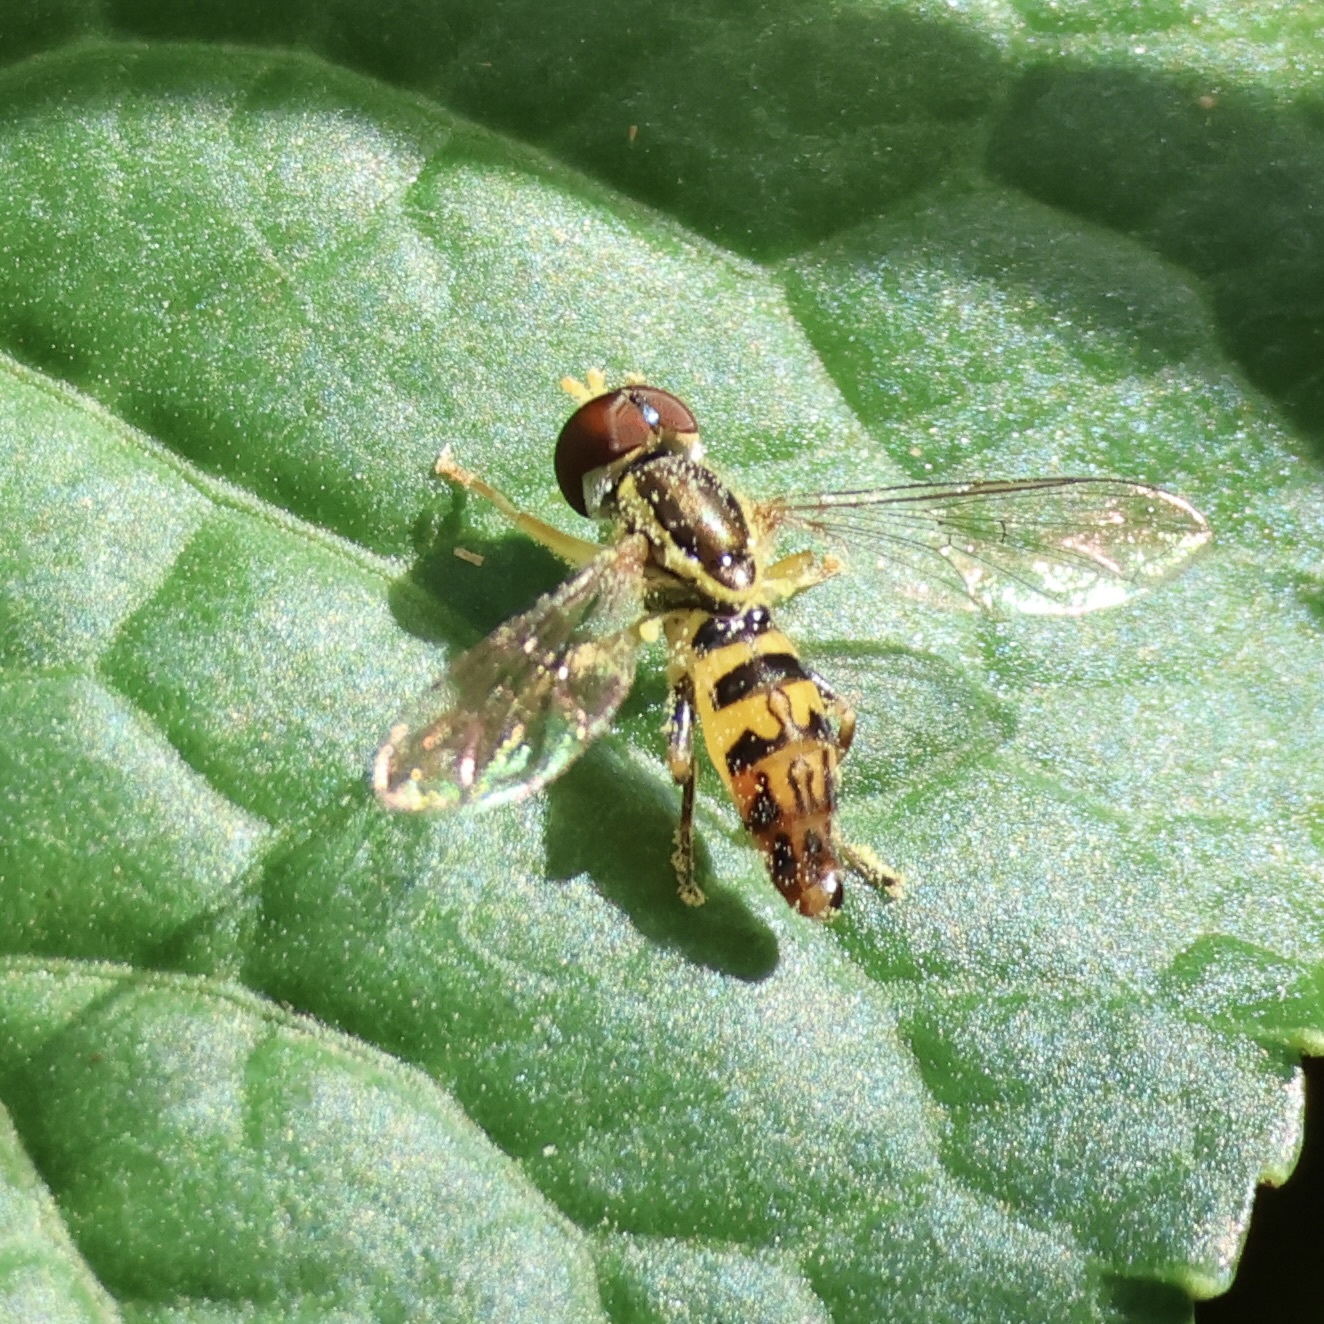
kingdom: Animalia
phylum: Arthropoda
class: Insecta
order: Diptera
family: Syrphidae
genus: Toxomerus
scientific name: Toxomerus geminatus
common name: Eastern calligrapher
